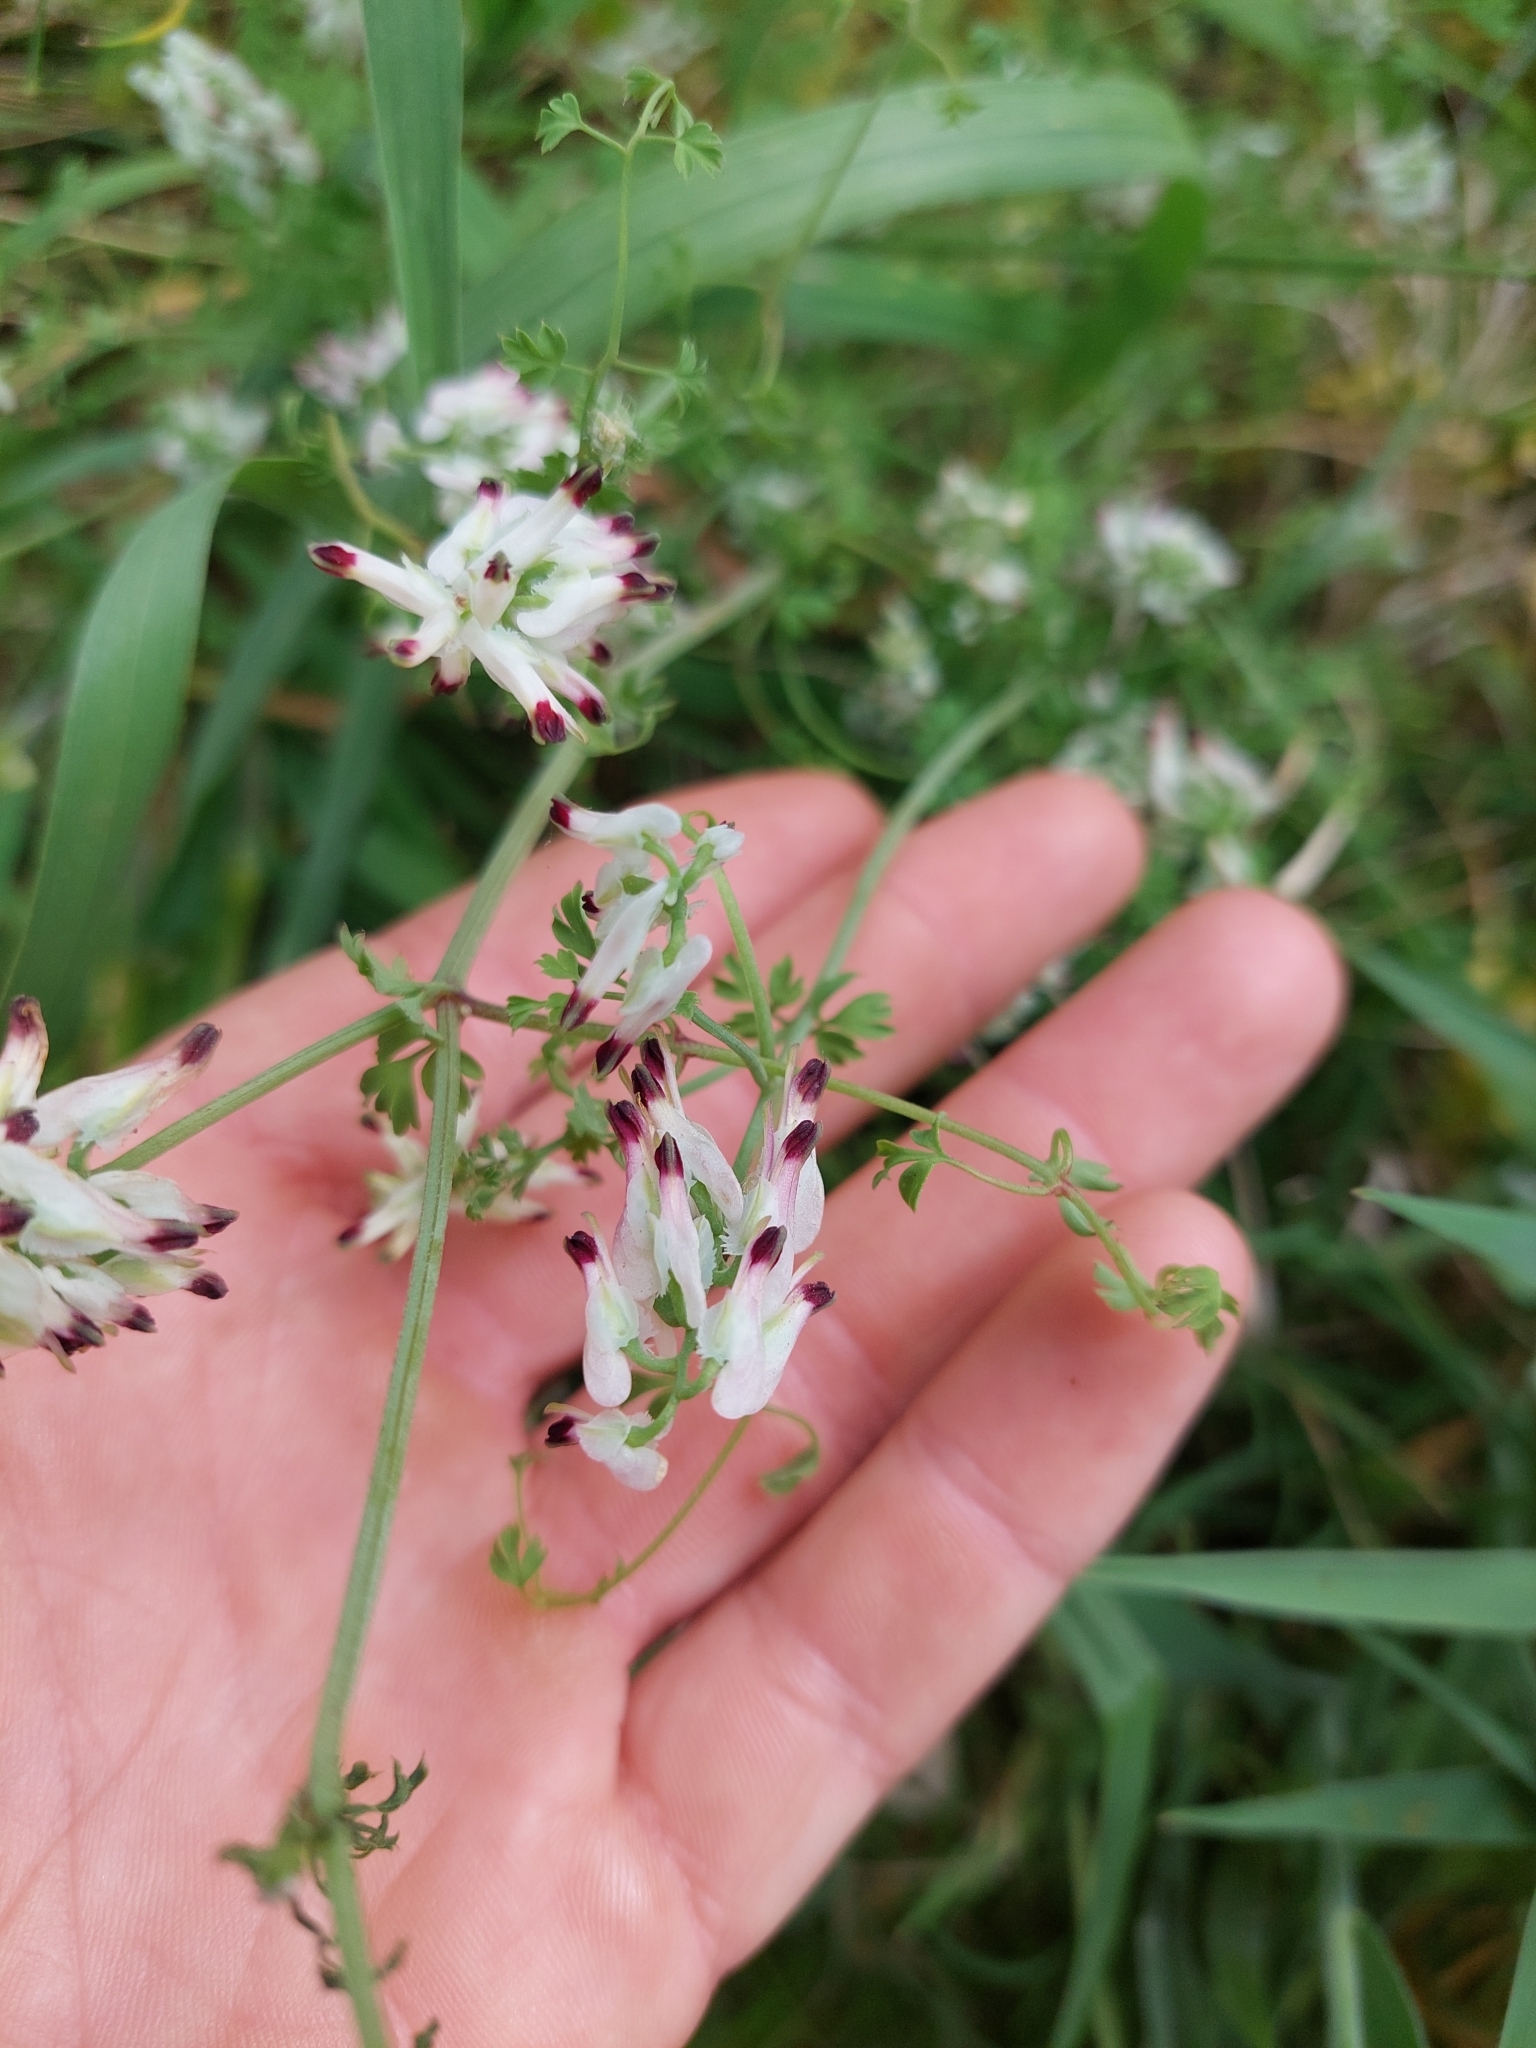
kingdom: Plantae
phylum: Tracheophyta
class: Magnoliopsida
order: Ranunculales
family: Papaveraceae
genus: Fumaria
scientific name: Fumaria capreolata
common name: White ramping-fumitory
